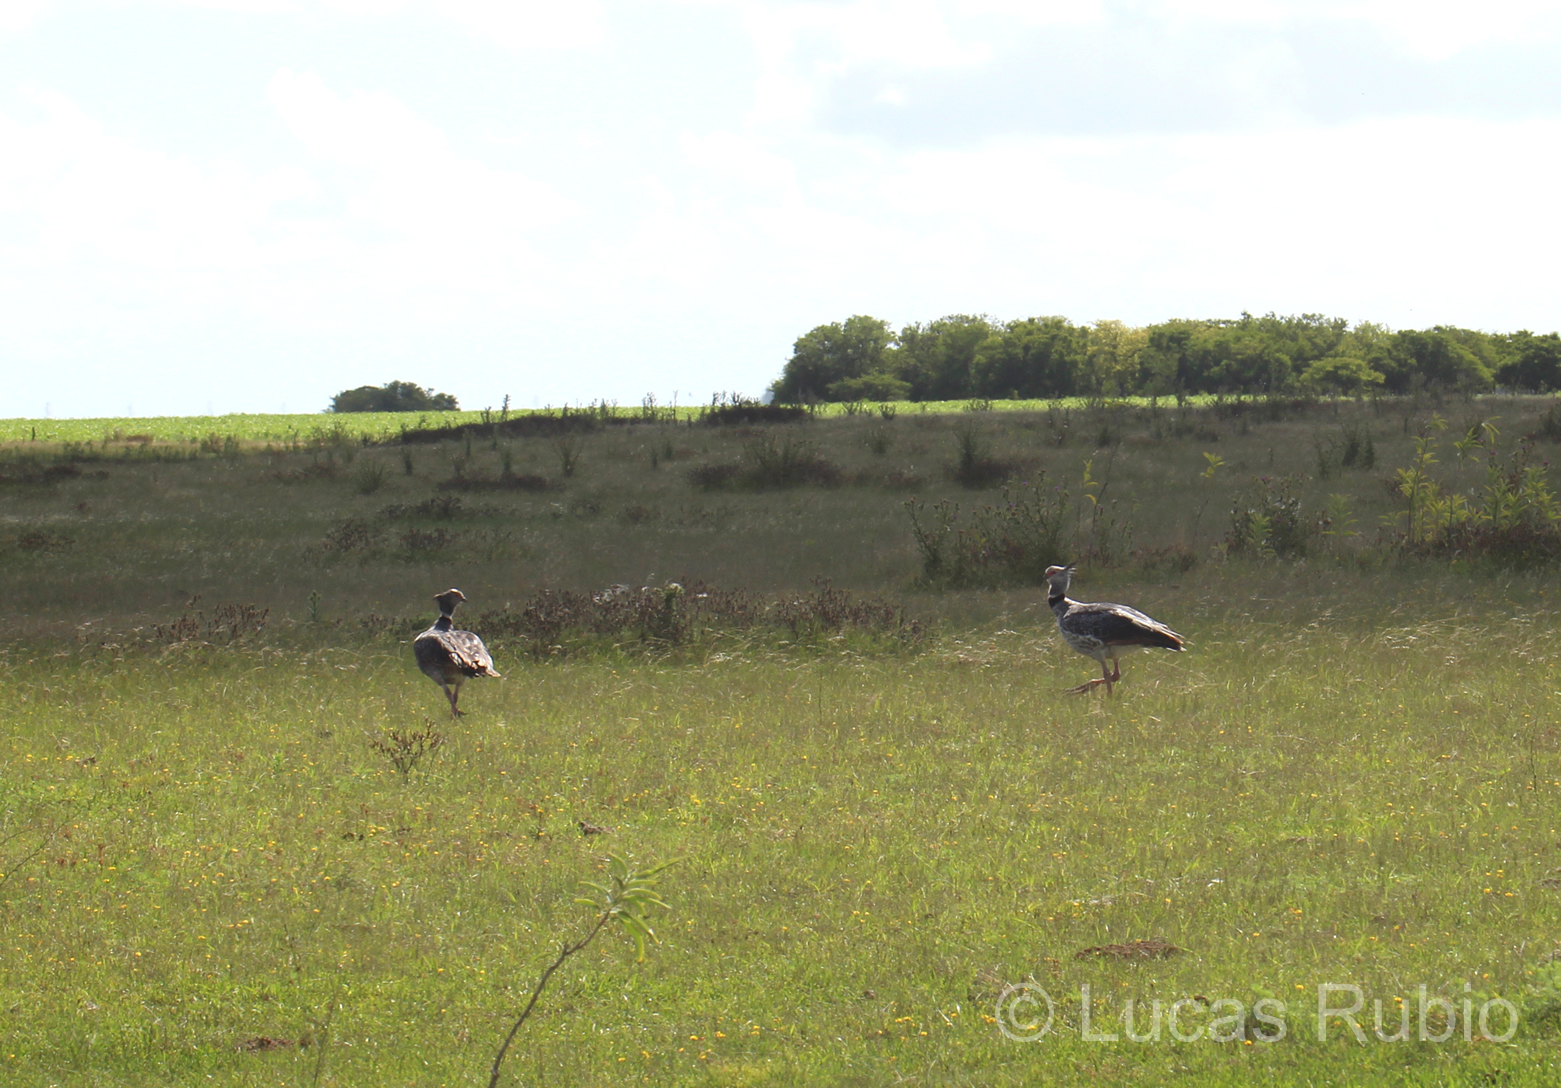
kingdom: Animalia
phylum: Chordata
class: Aves
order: Anseriformes
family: Anhimidae
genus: Chauna
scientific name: Chauna torquata
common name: Southern screamer
